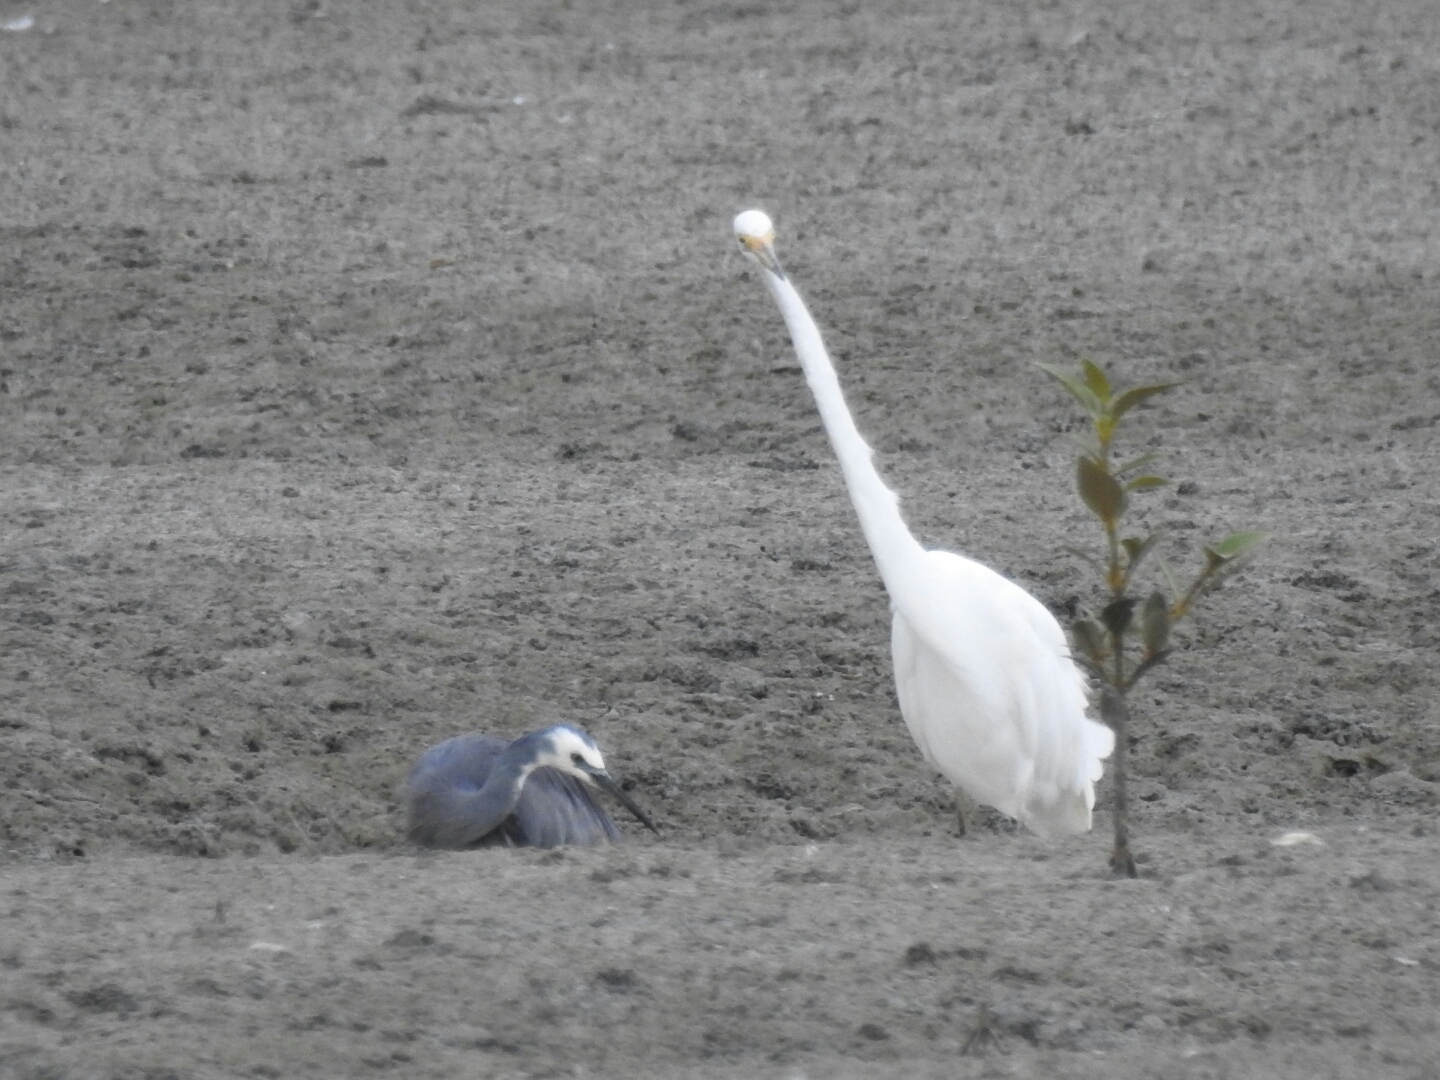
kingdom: Animalia
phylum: Chordata
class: Aves
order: Pelecaniformes
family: Ardeidae
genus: Ardea
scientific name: Ardea modesta
